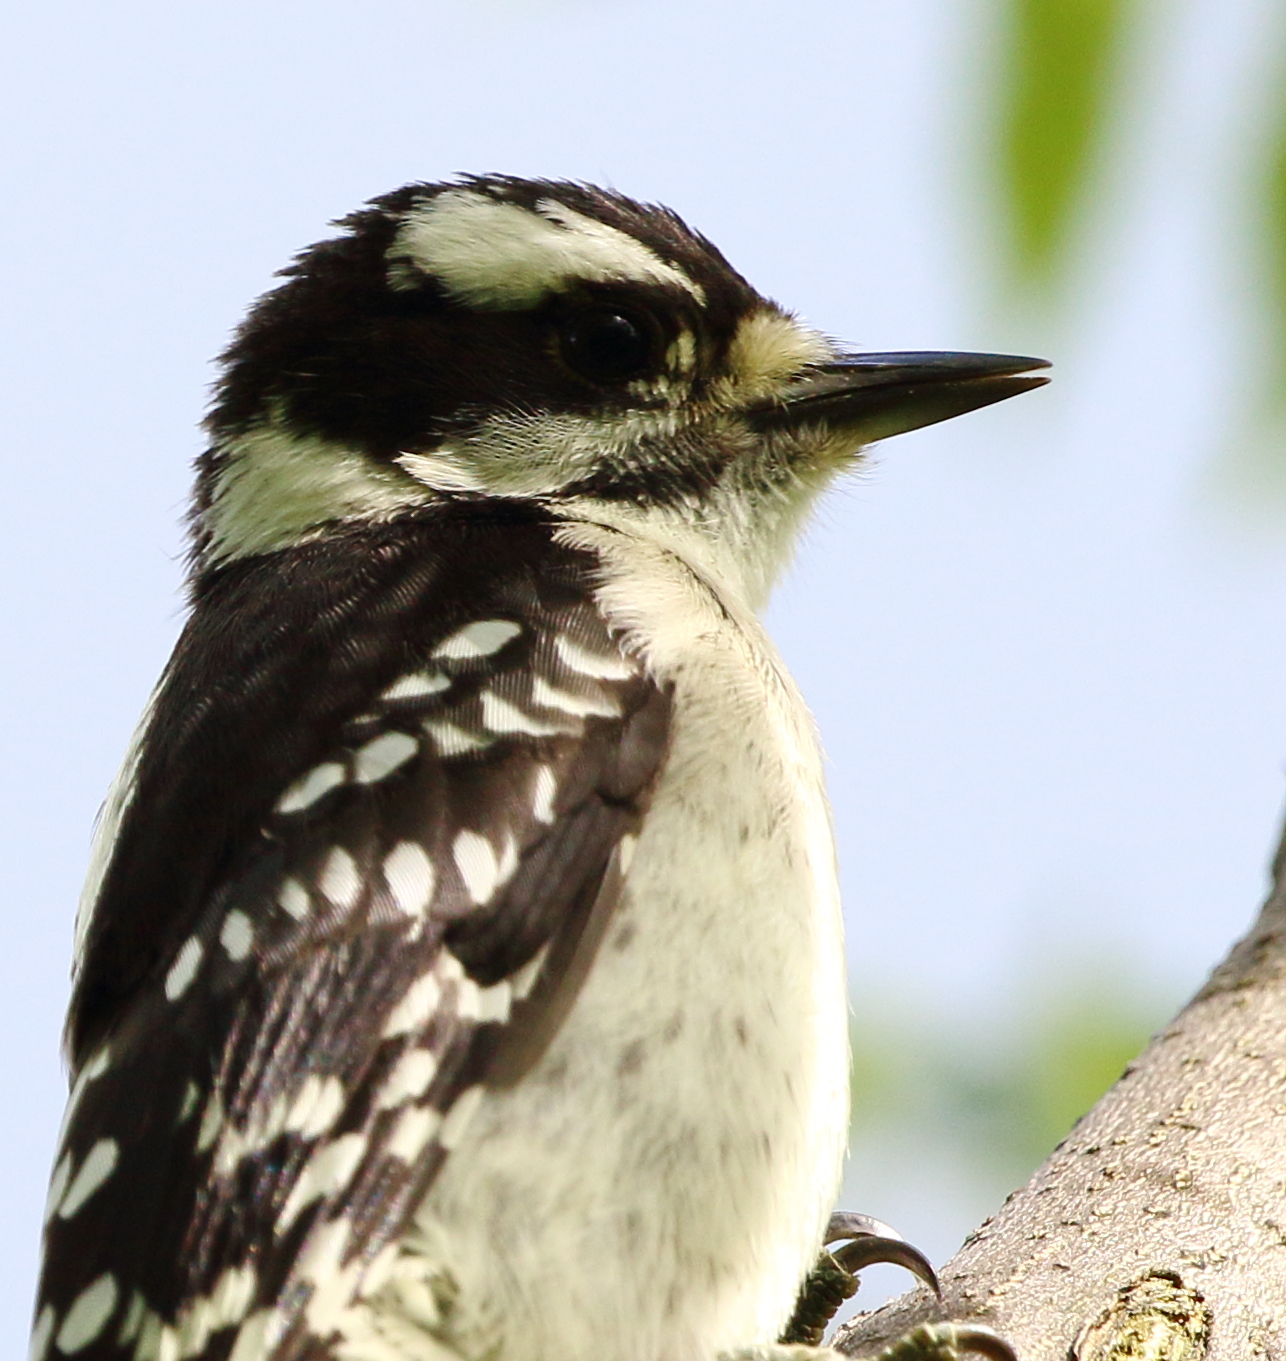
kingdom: Animalia
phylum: Chordata
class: Aves
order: Piciformes
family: Picidae
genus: Dryobates
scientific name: Dryobates pubescens
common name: Downy woodpecker
